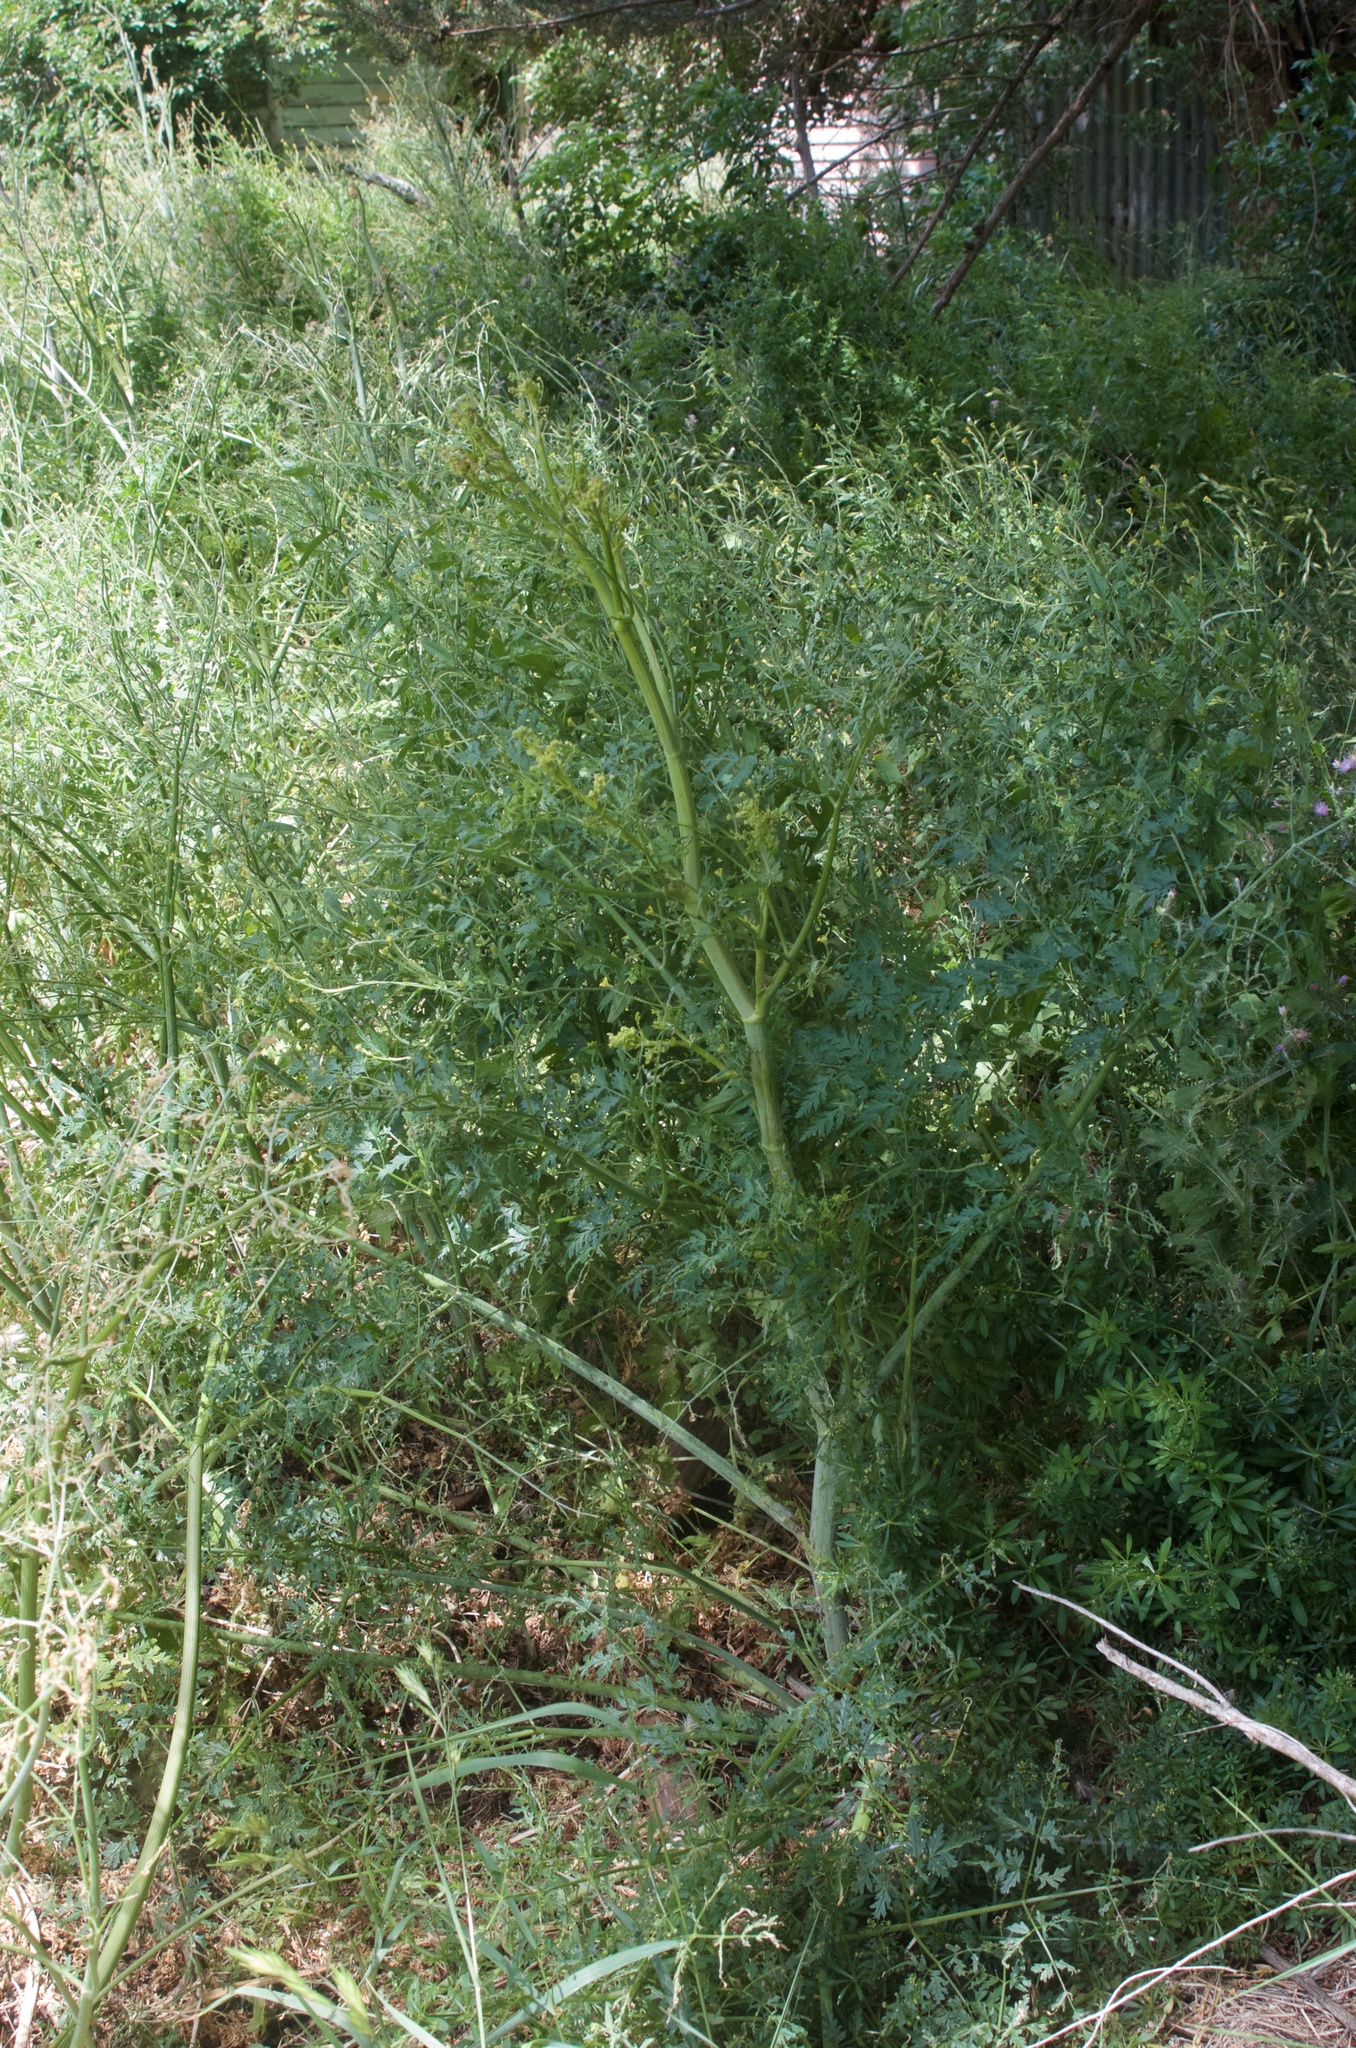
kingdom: Plantae
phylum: Tracheophyta
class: Magnoliopsida
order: Apiales
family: Apiaceae
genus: Conium
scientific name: Conium maculatum
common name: Hemlock
